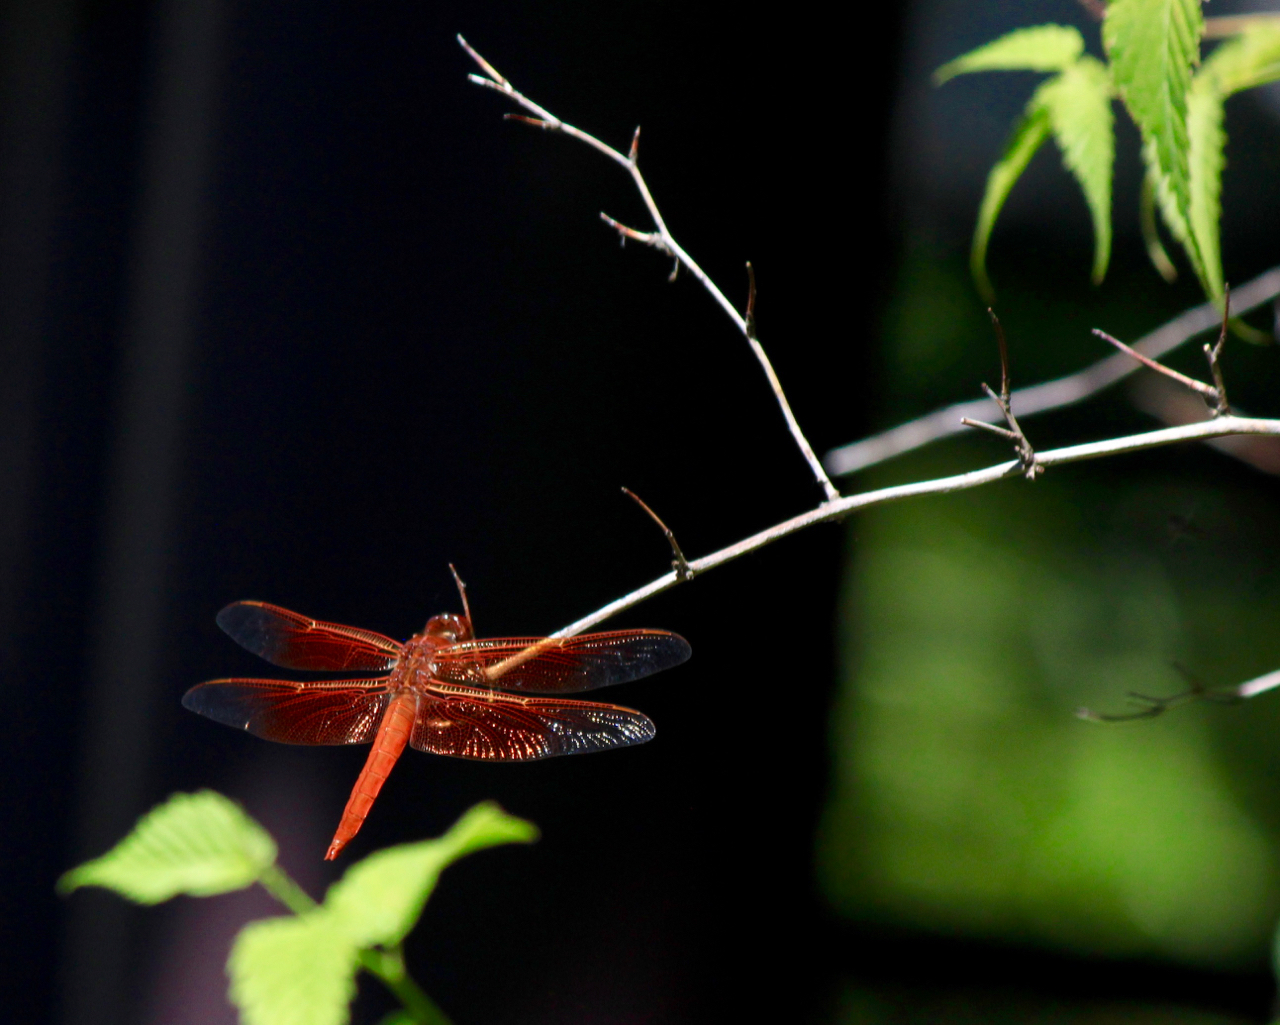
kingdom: Animalia
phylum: Arthropoda
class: Insecta
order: Odonata
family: Libellulidae
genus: Libellula
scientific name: Libellula saturata
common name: Flame skimmer
